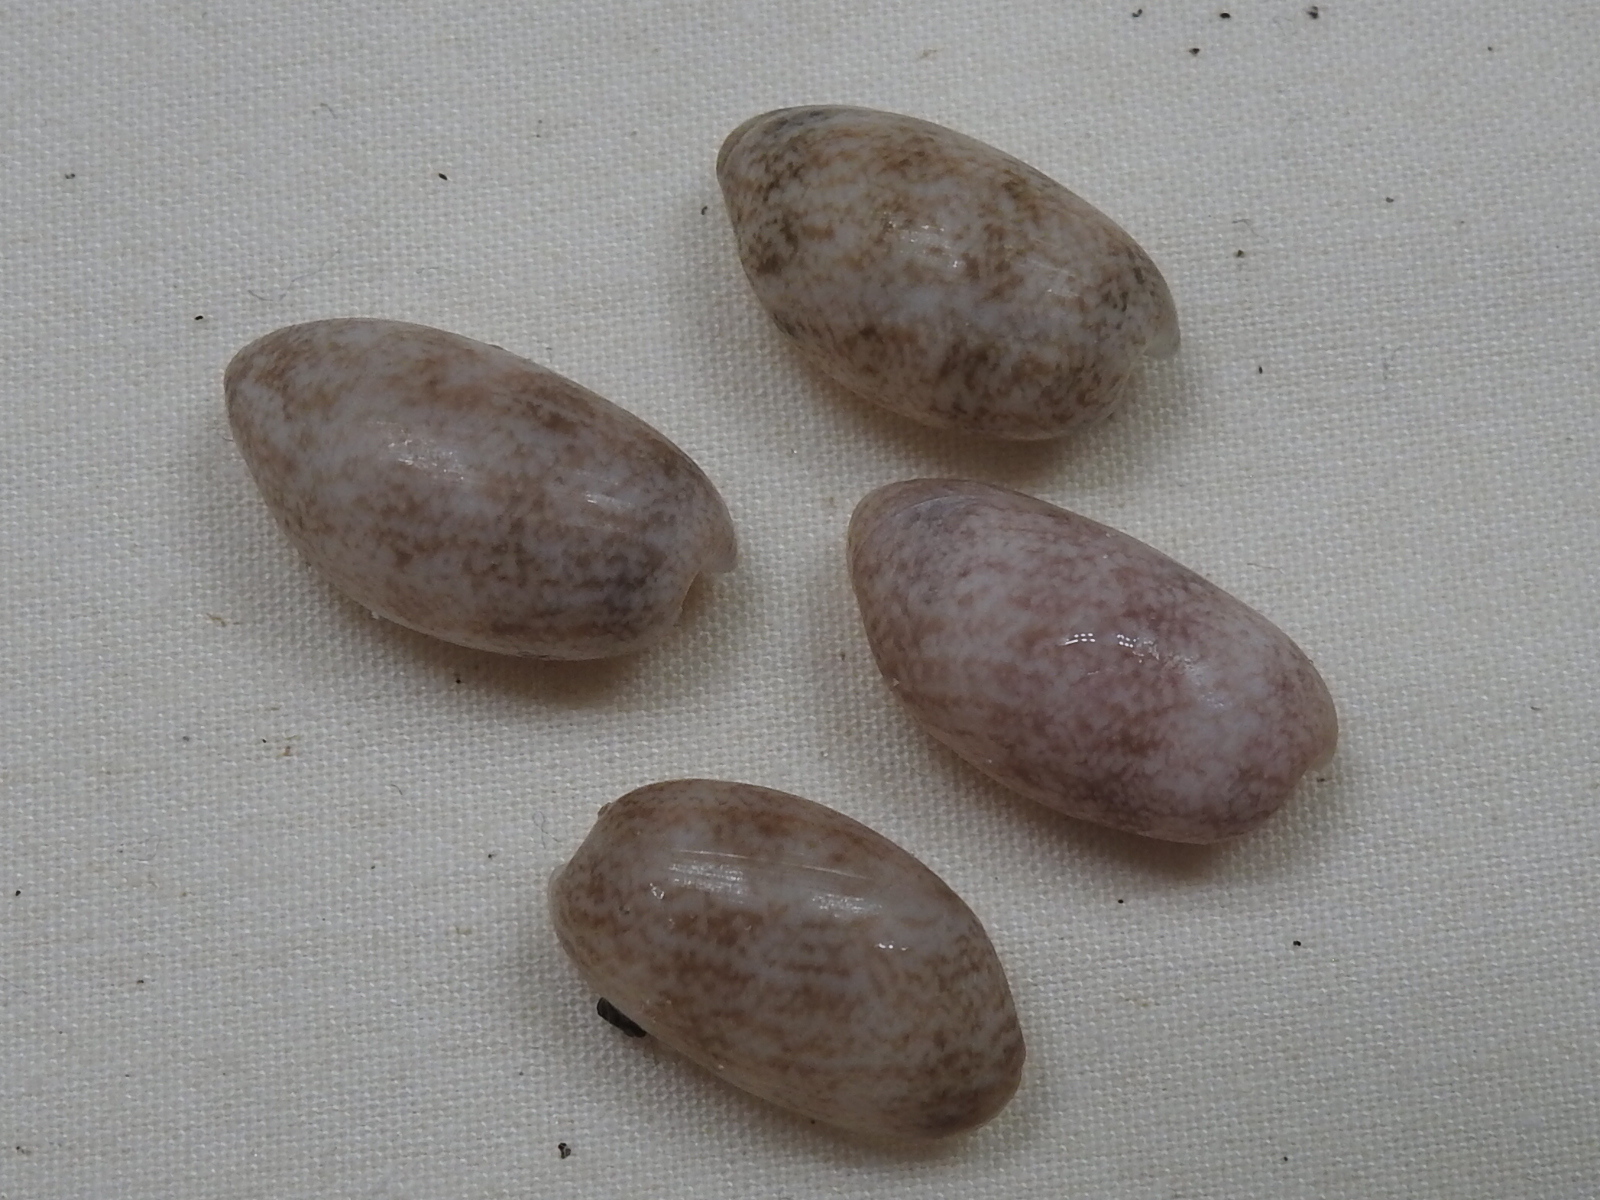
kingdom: Animalia
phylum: Mollusca
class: Gastropoda
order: Cephalaspidea
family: Bullidae
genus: Bulla
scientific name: Bulla occidentalis
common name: Common west-indian bubble
